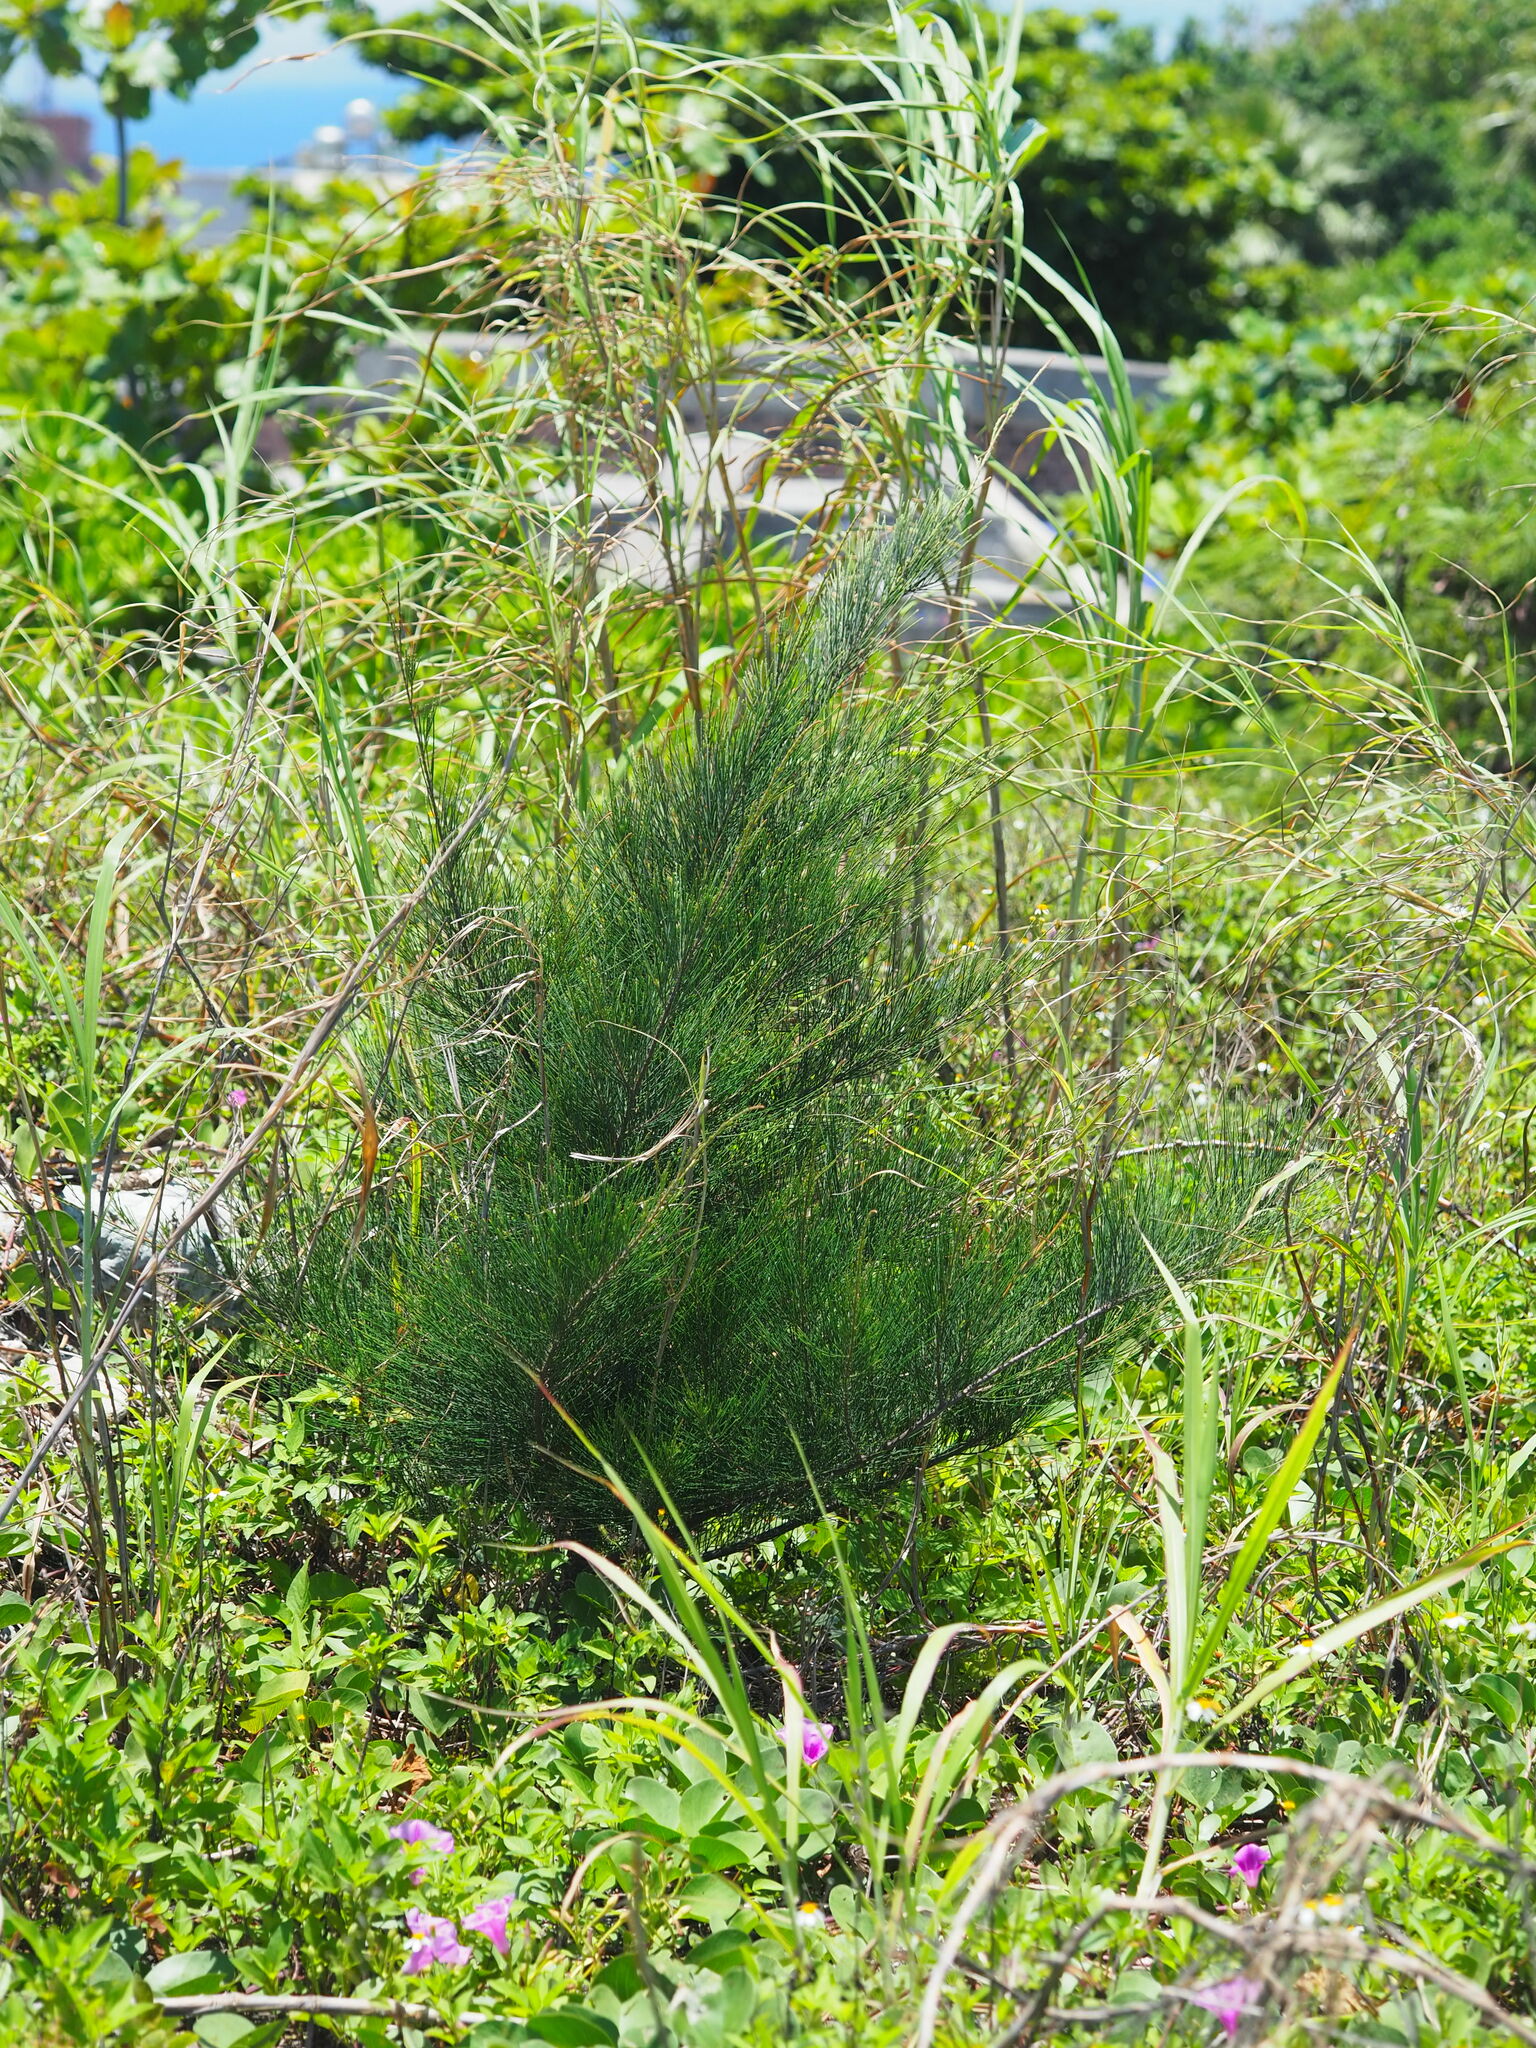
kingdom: Plantae
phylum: Tracheophyta
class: Magnoliopsida
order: Fagales
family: Casuarinaceae
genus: Casuarina
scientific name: Casuarina equisetifolia
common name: Beach sheoak
